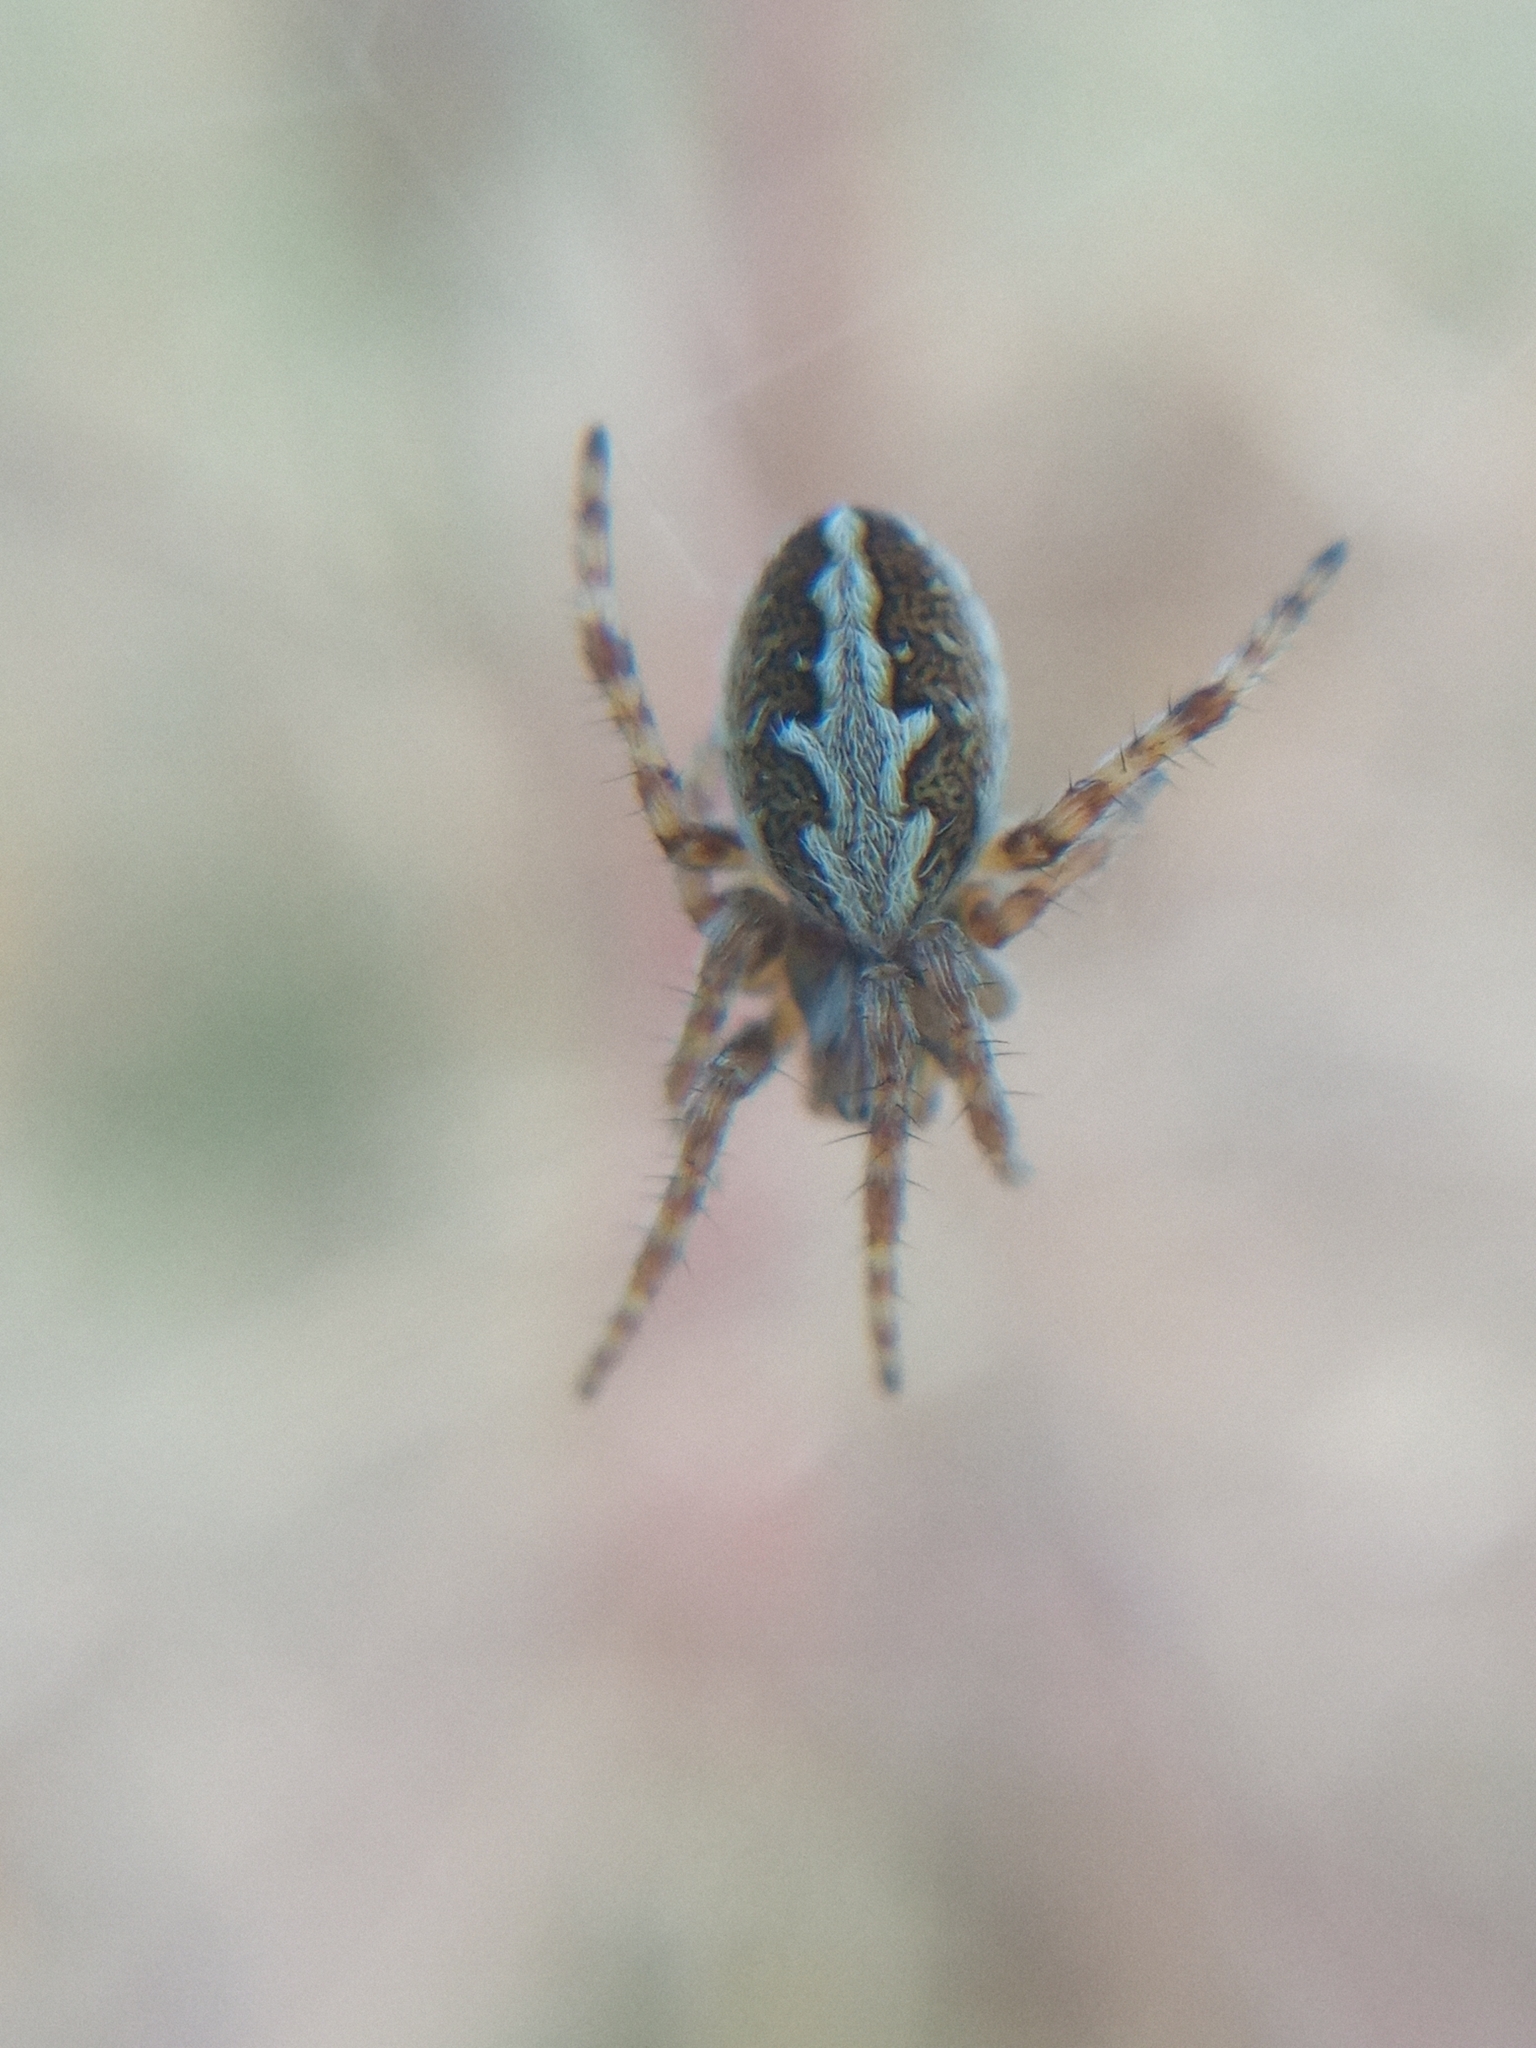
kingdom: Animalia
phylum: Arthropoda
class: Arachnida
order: Araneae
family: Araneidae
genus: Aculepeira
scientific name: Aculepeira ceropegia
